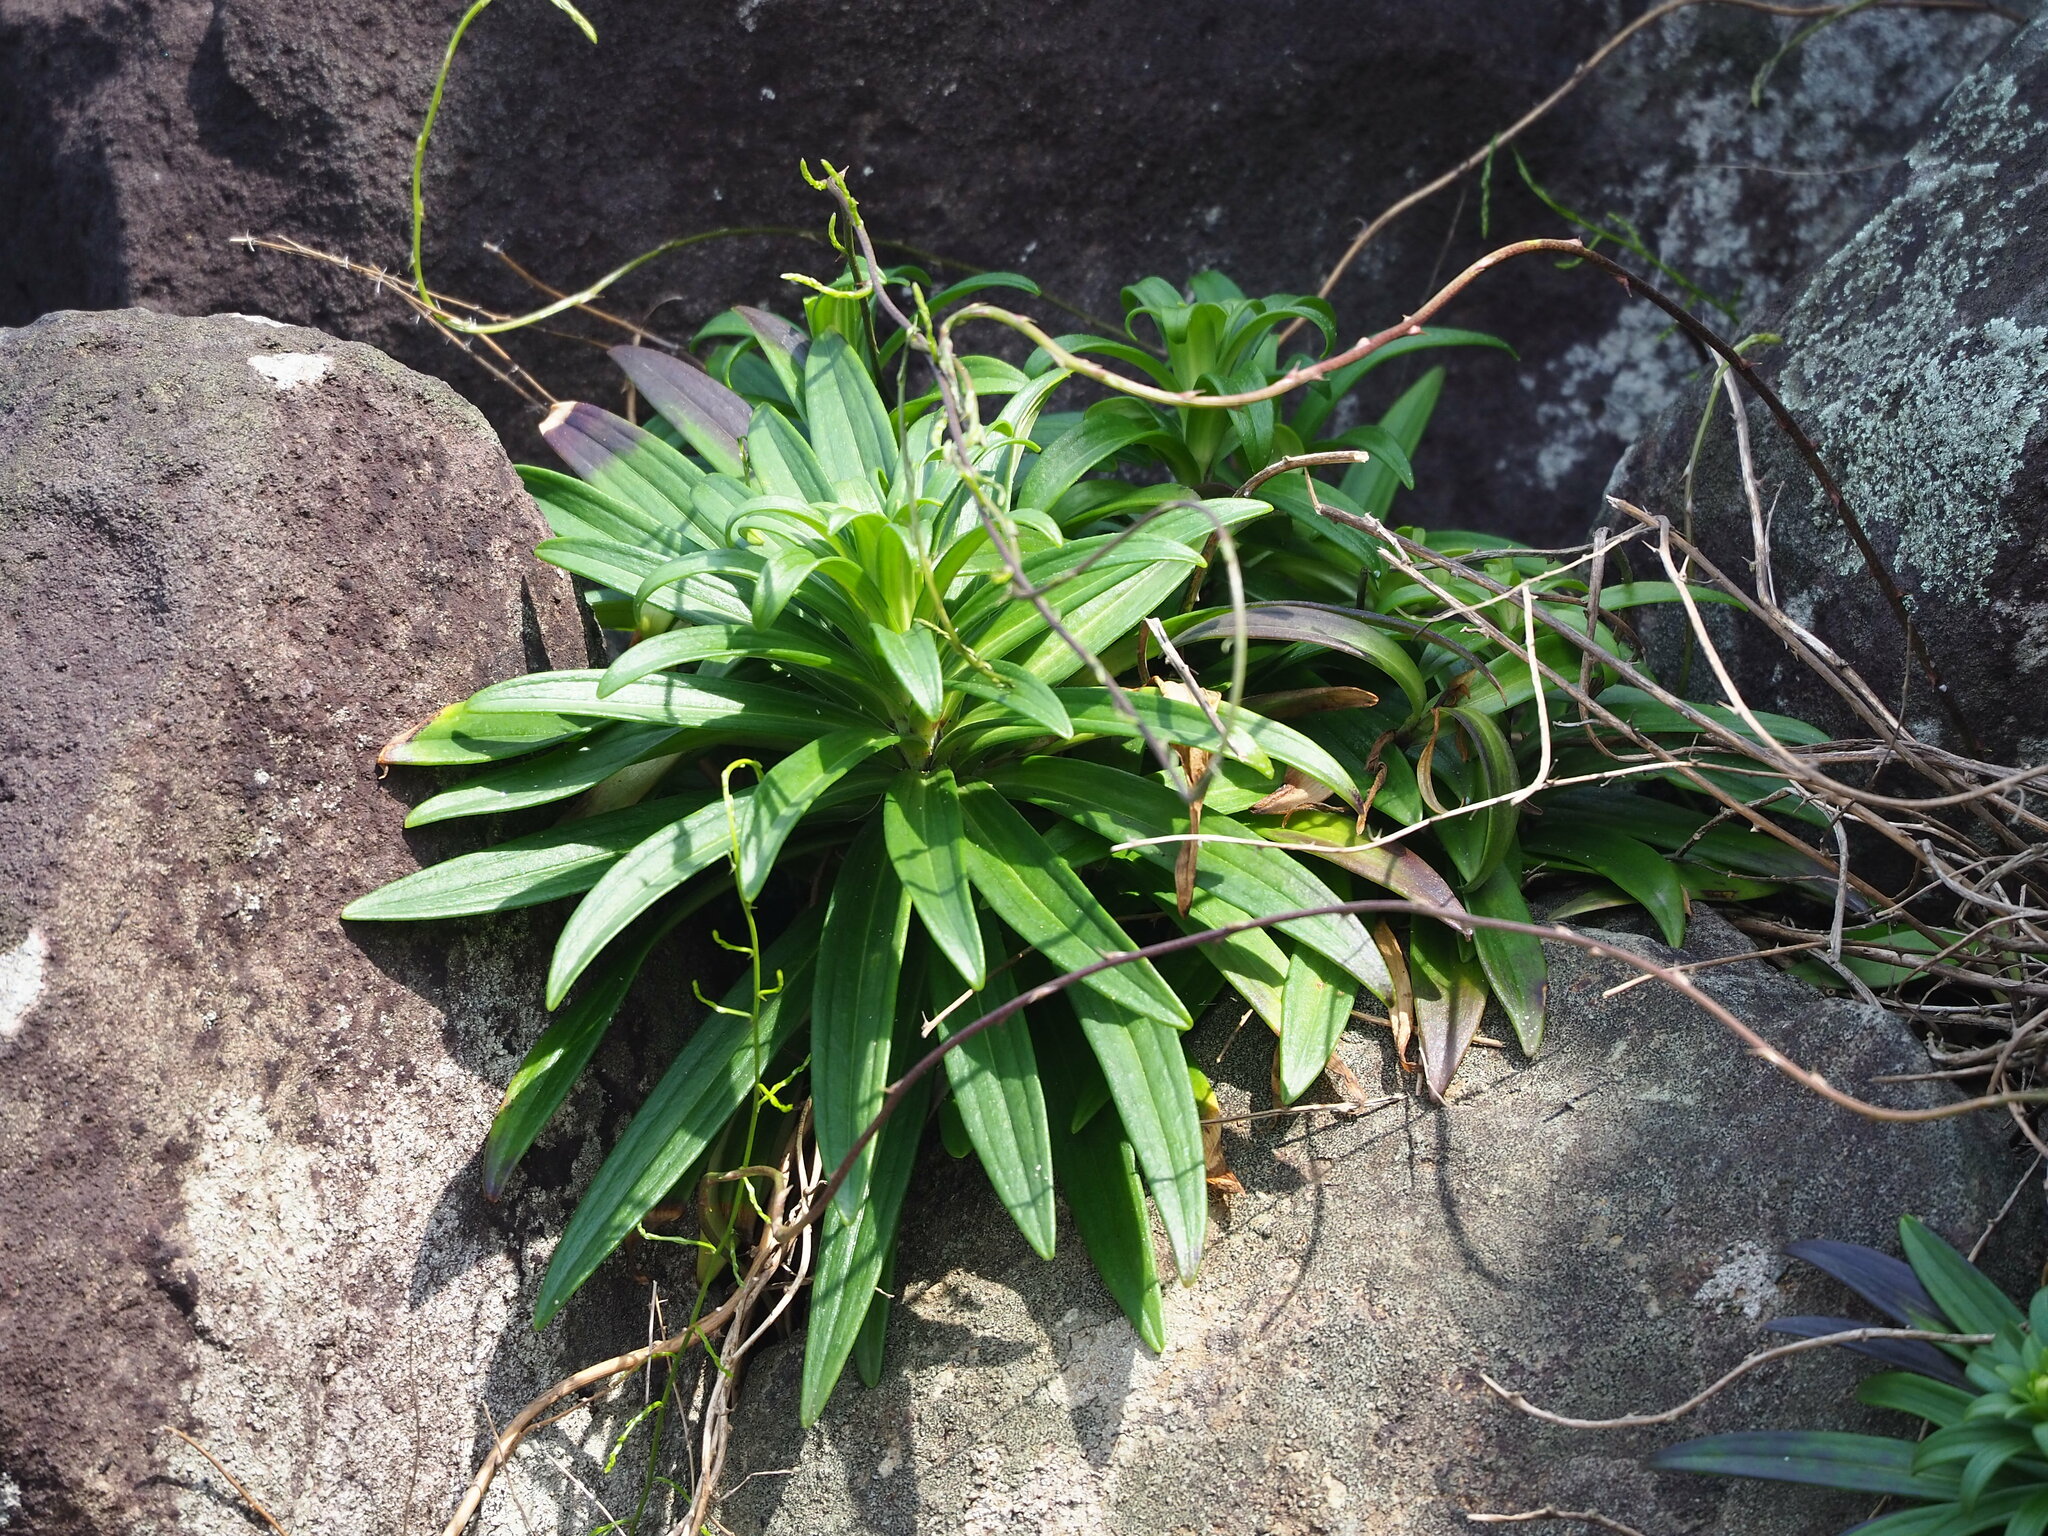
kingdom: Plantae
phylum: Tracheophyta
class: Liliopsida
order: Liliales
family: Liliaceae
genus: Lilium
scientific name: Lilium longiflorum
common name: Easter lily
